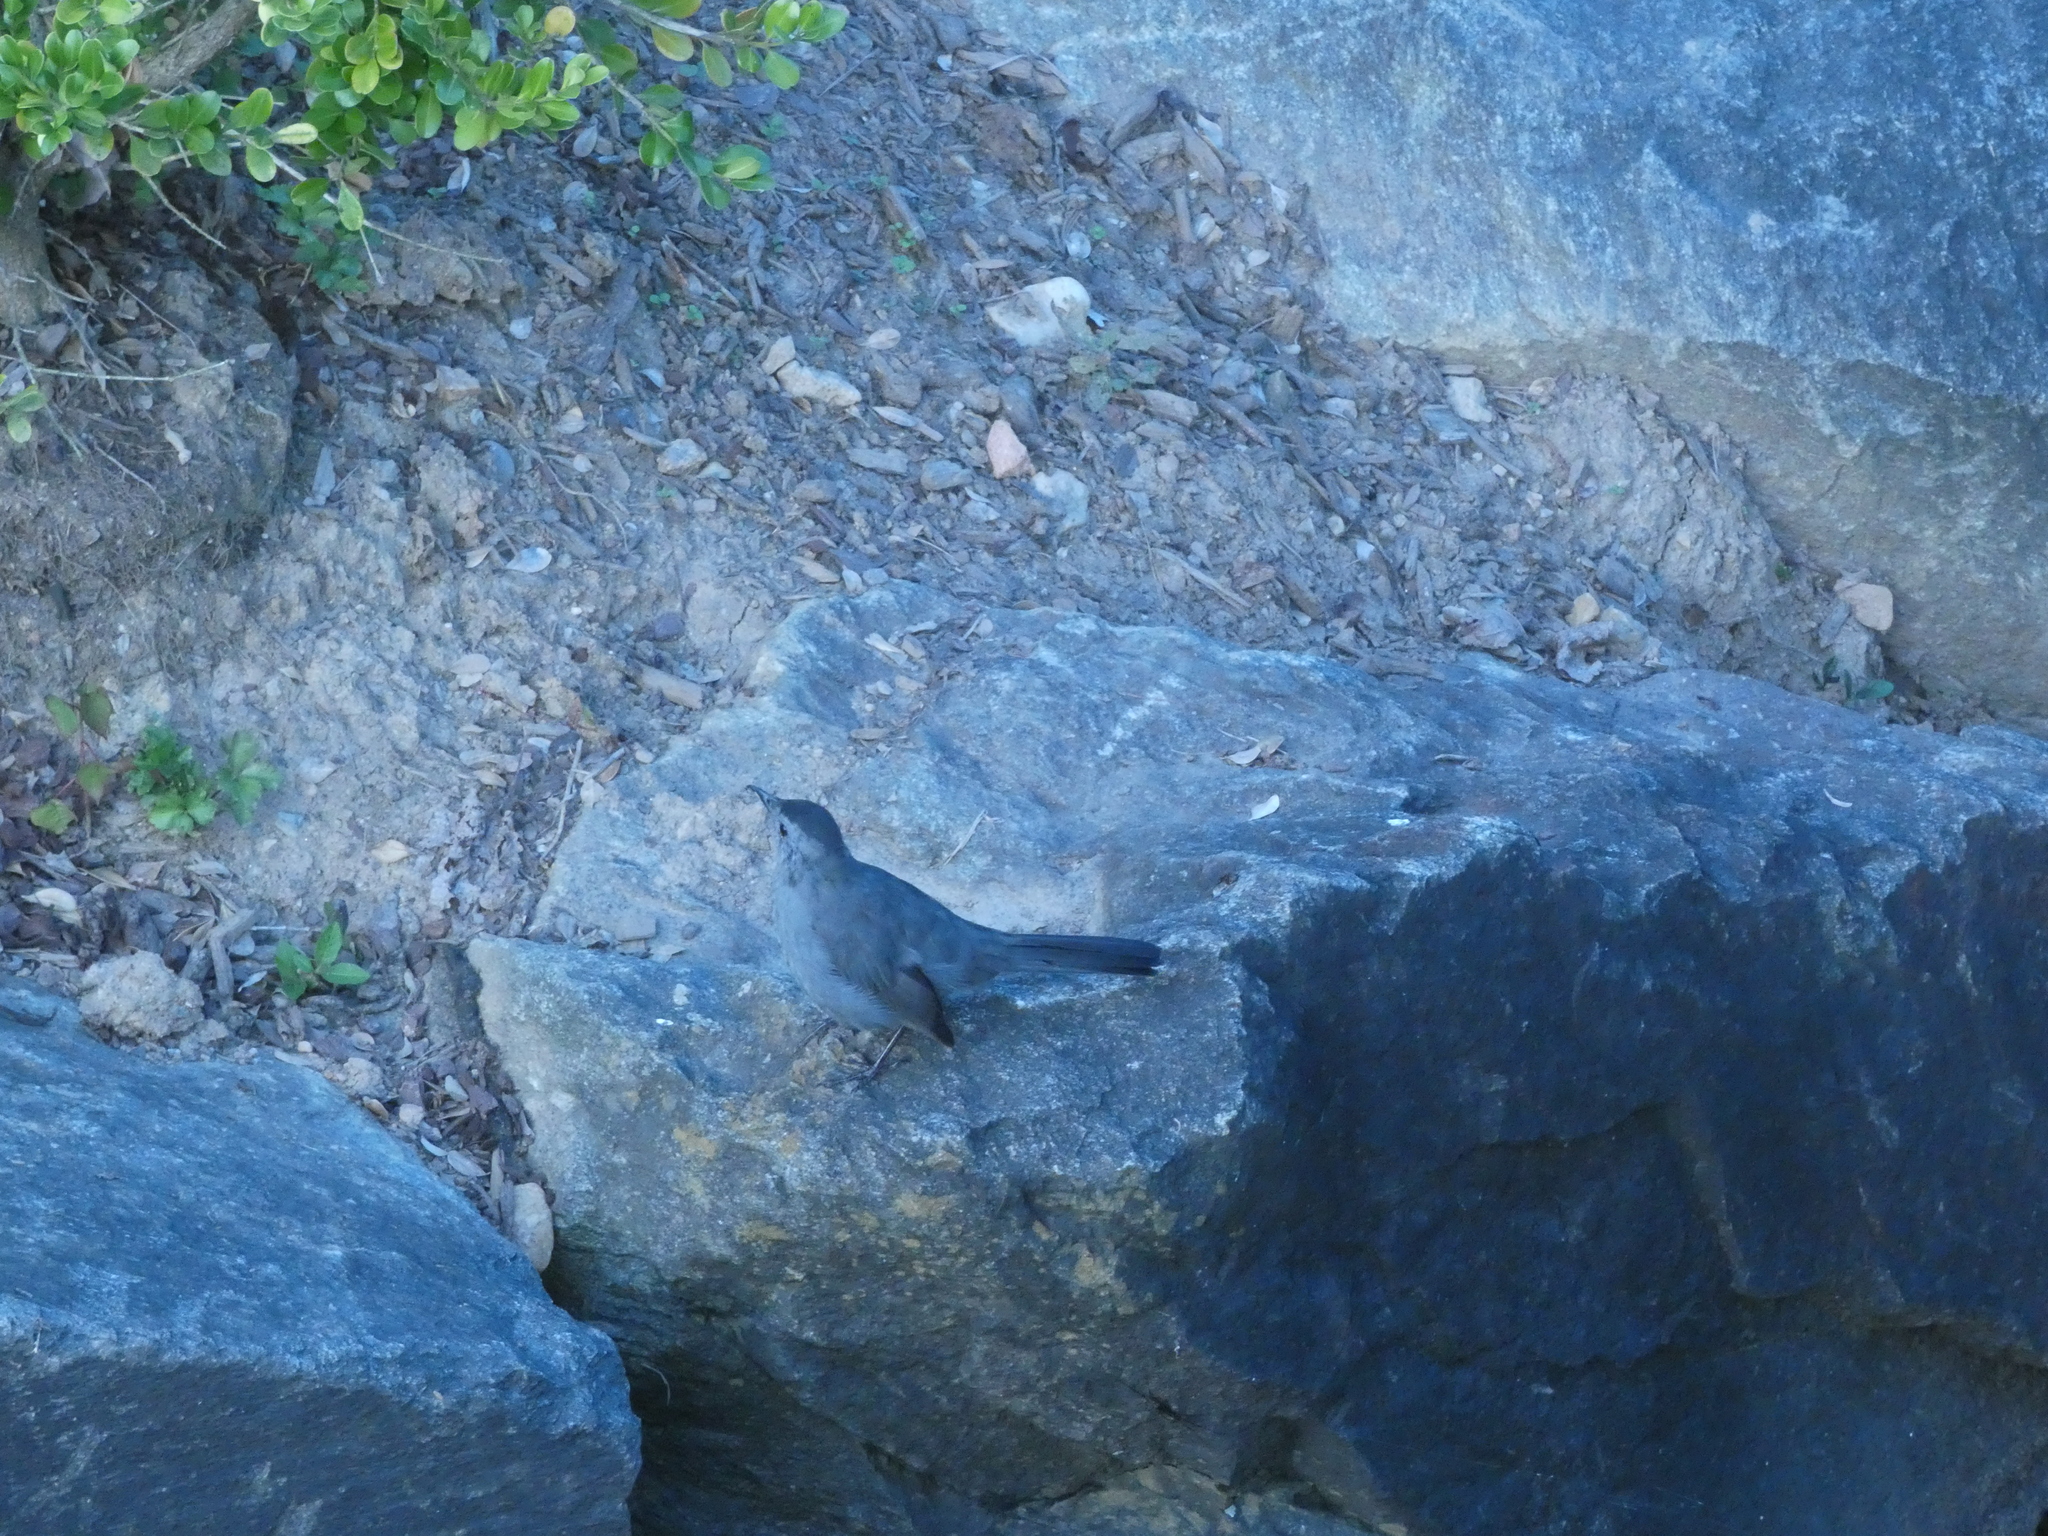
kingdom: Animalia
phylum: Chordata
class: Aves
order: Passeriformes
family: Mimidae
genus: Dumetella
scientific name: Dumetella carolinensis
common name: Gray catbird
